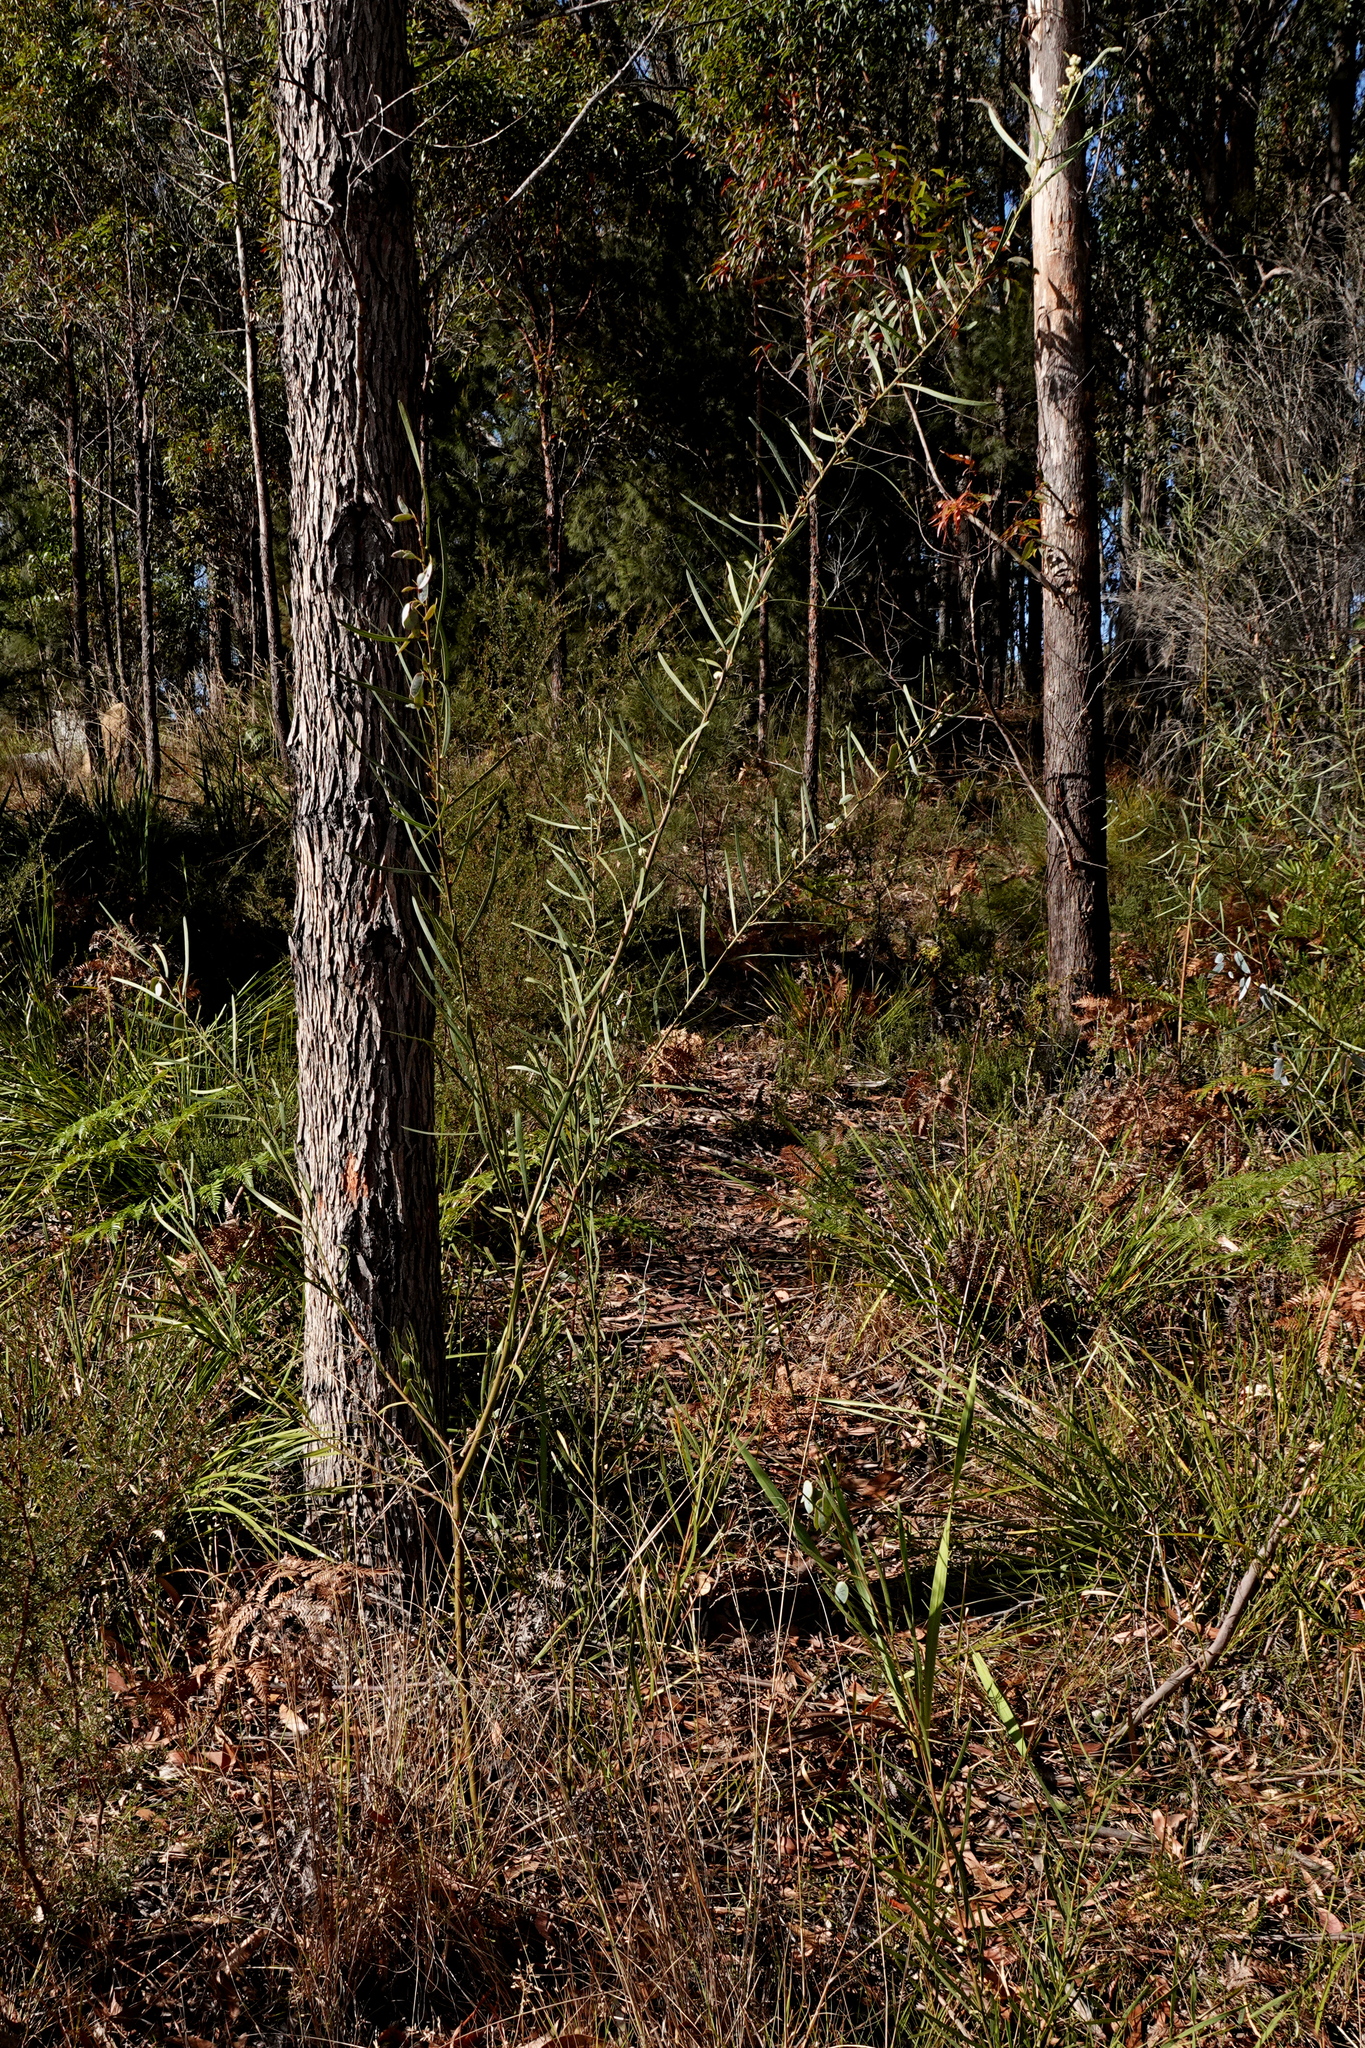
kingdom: Plantae
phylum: Tracheophyta
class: Magnoliopsida
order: Fabales
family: Fabaceae
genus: Acacia
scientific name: Acacia suaveolens
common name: Sweet acacia
